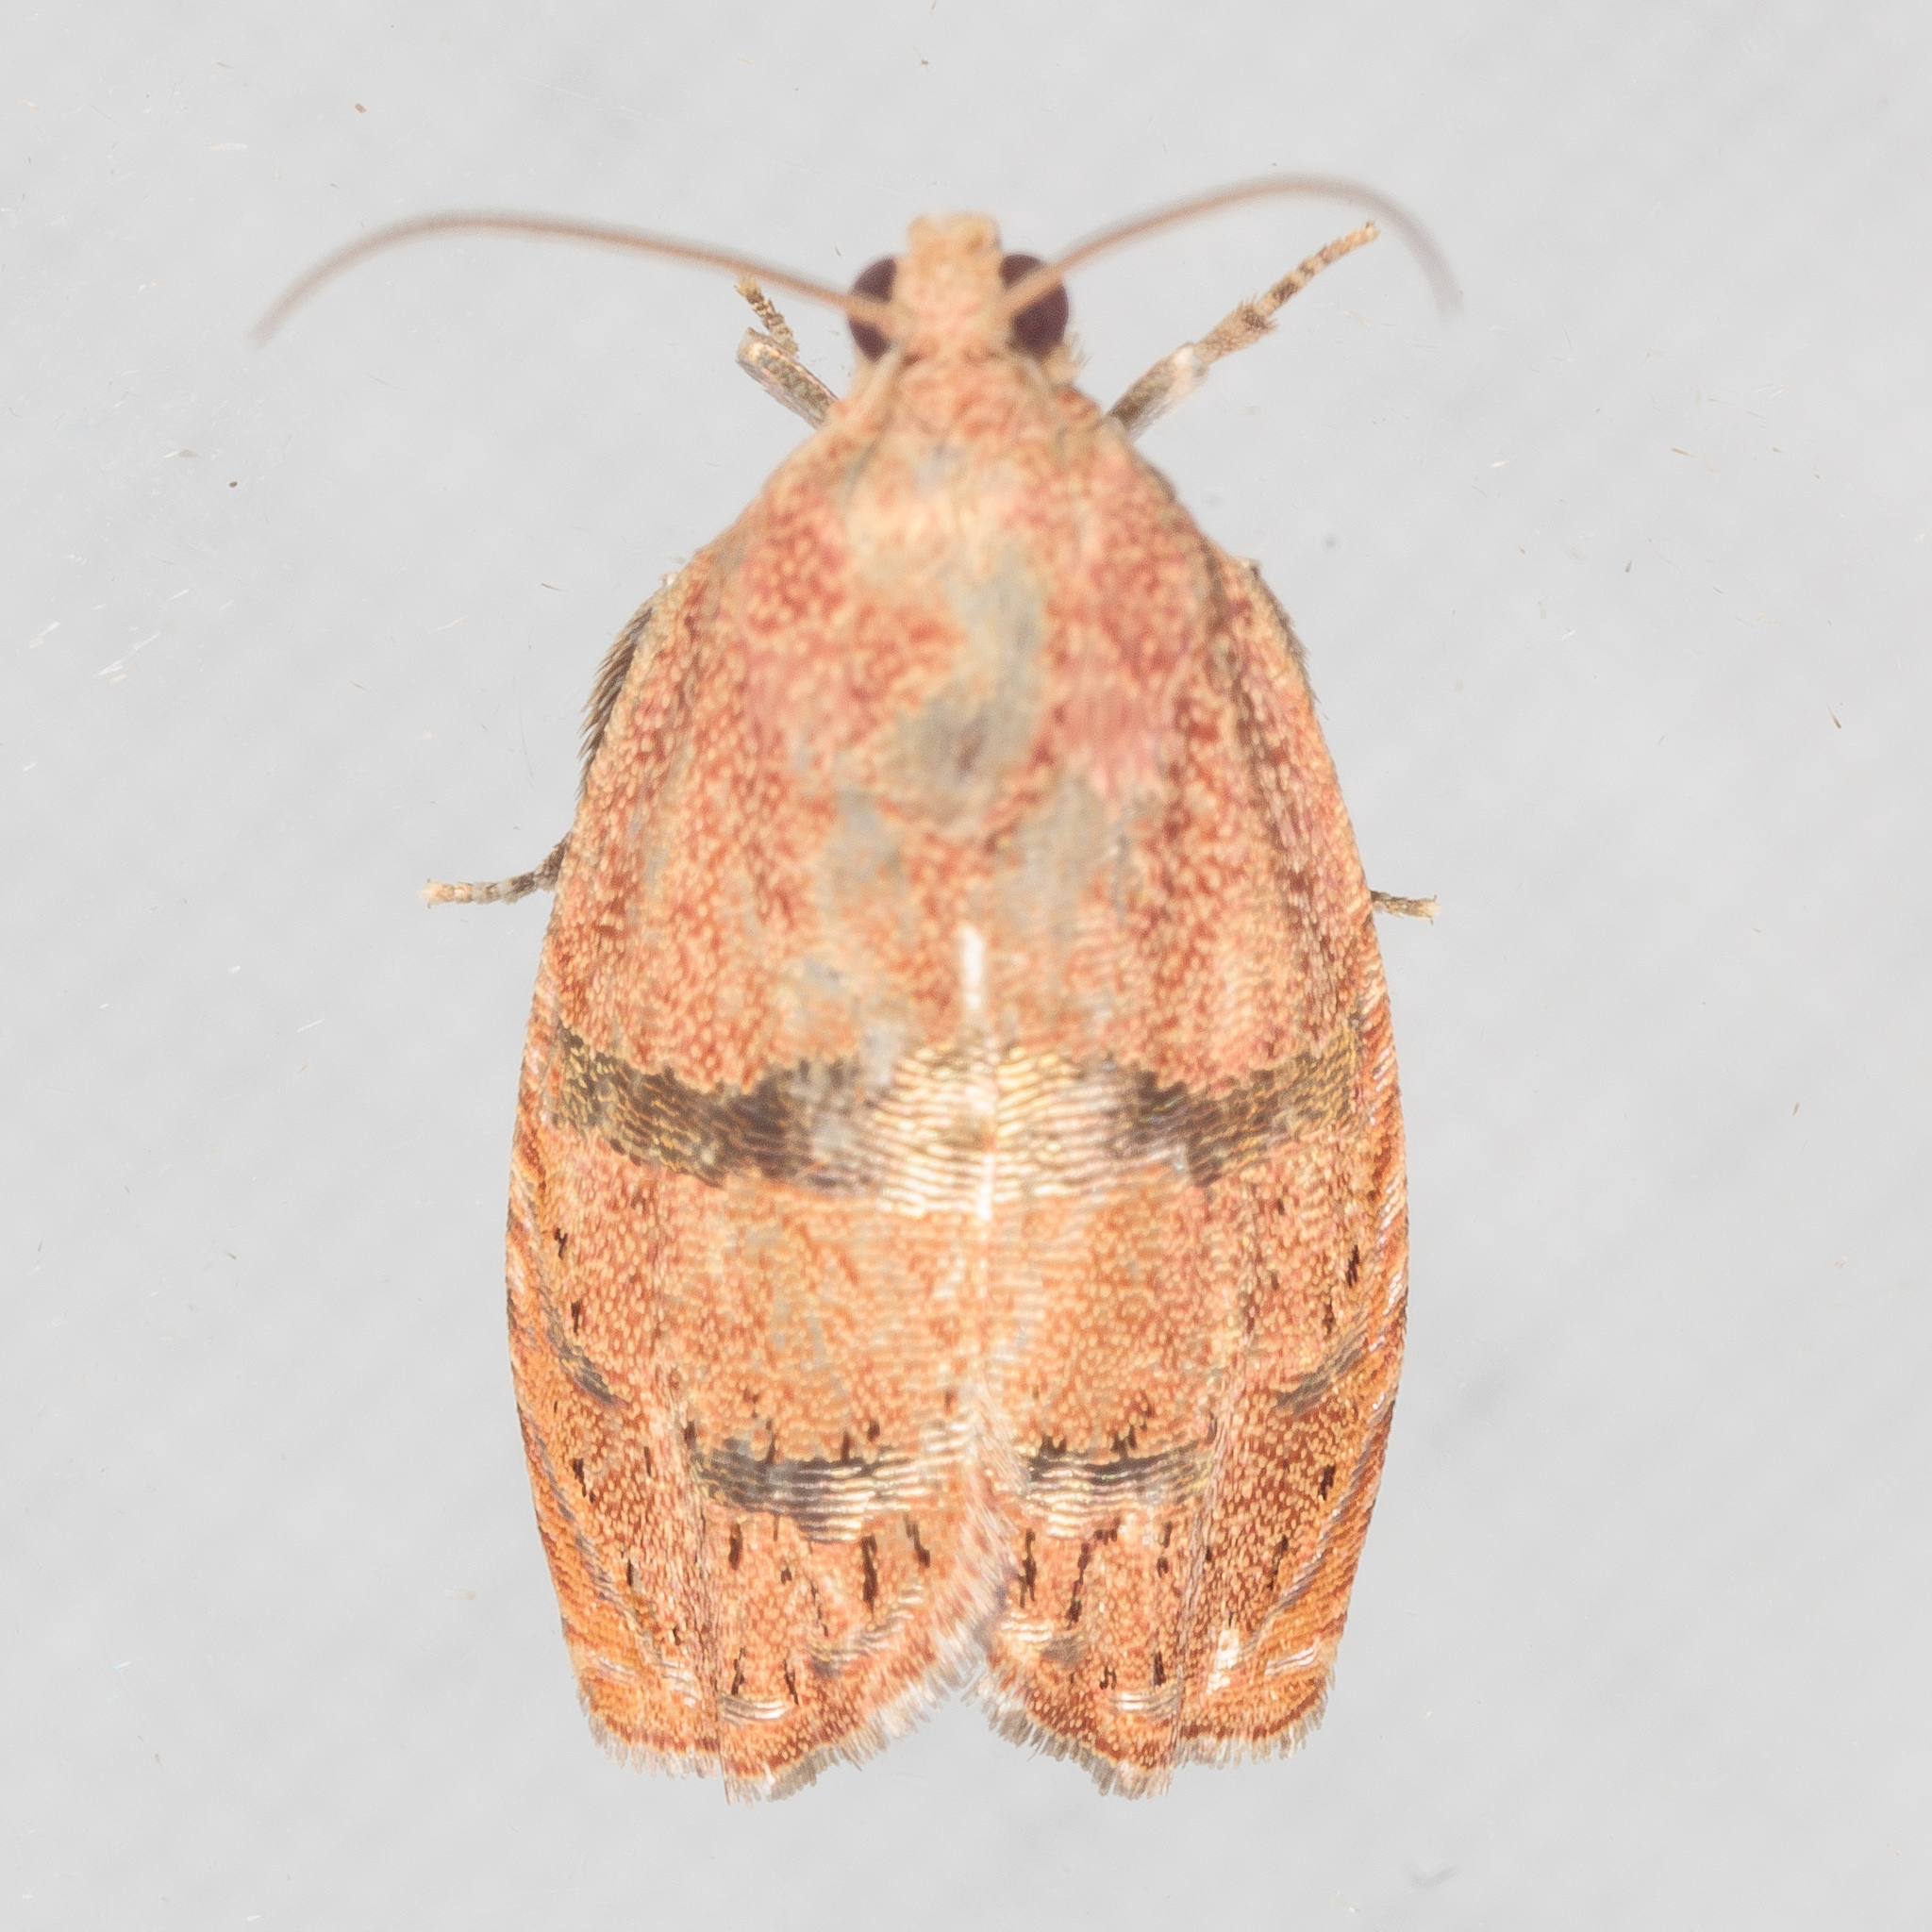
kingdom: Animalia
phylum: Arthropoda
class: Insecta
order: Lepidoptera
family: Tortricidae
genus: Cydia
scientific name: Cydia latiferreana
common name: Filbertworm moth
